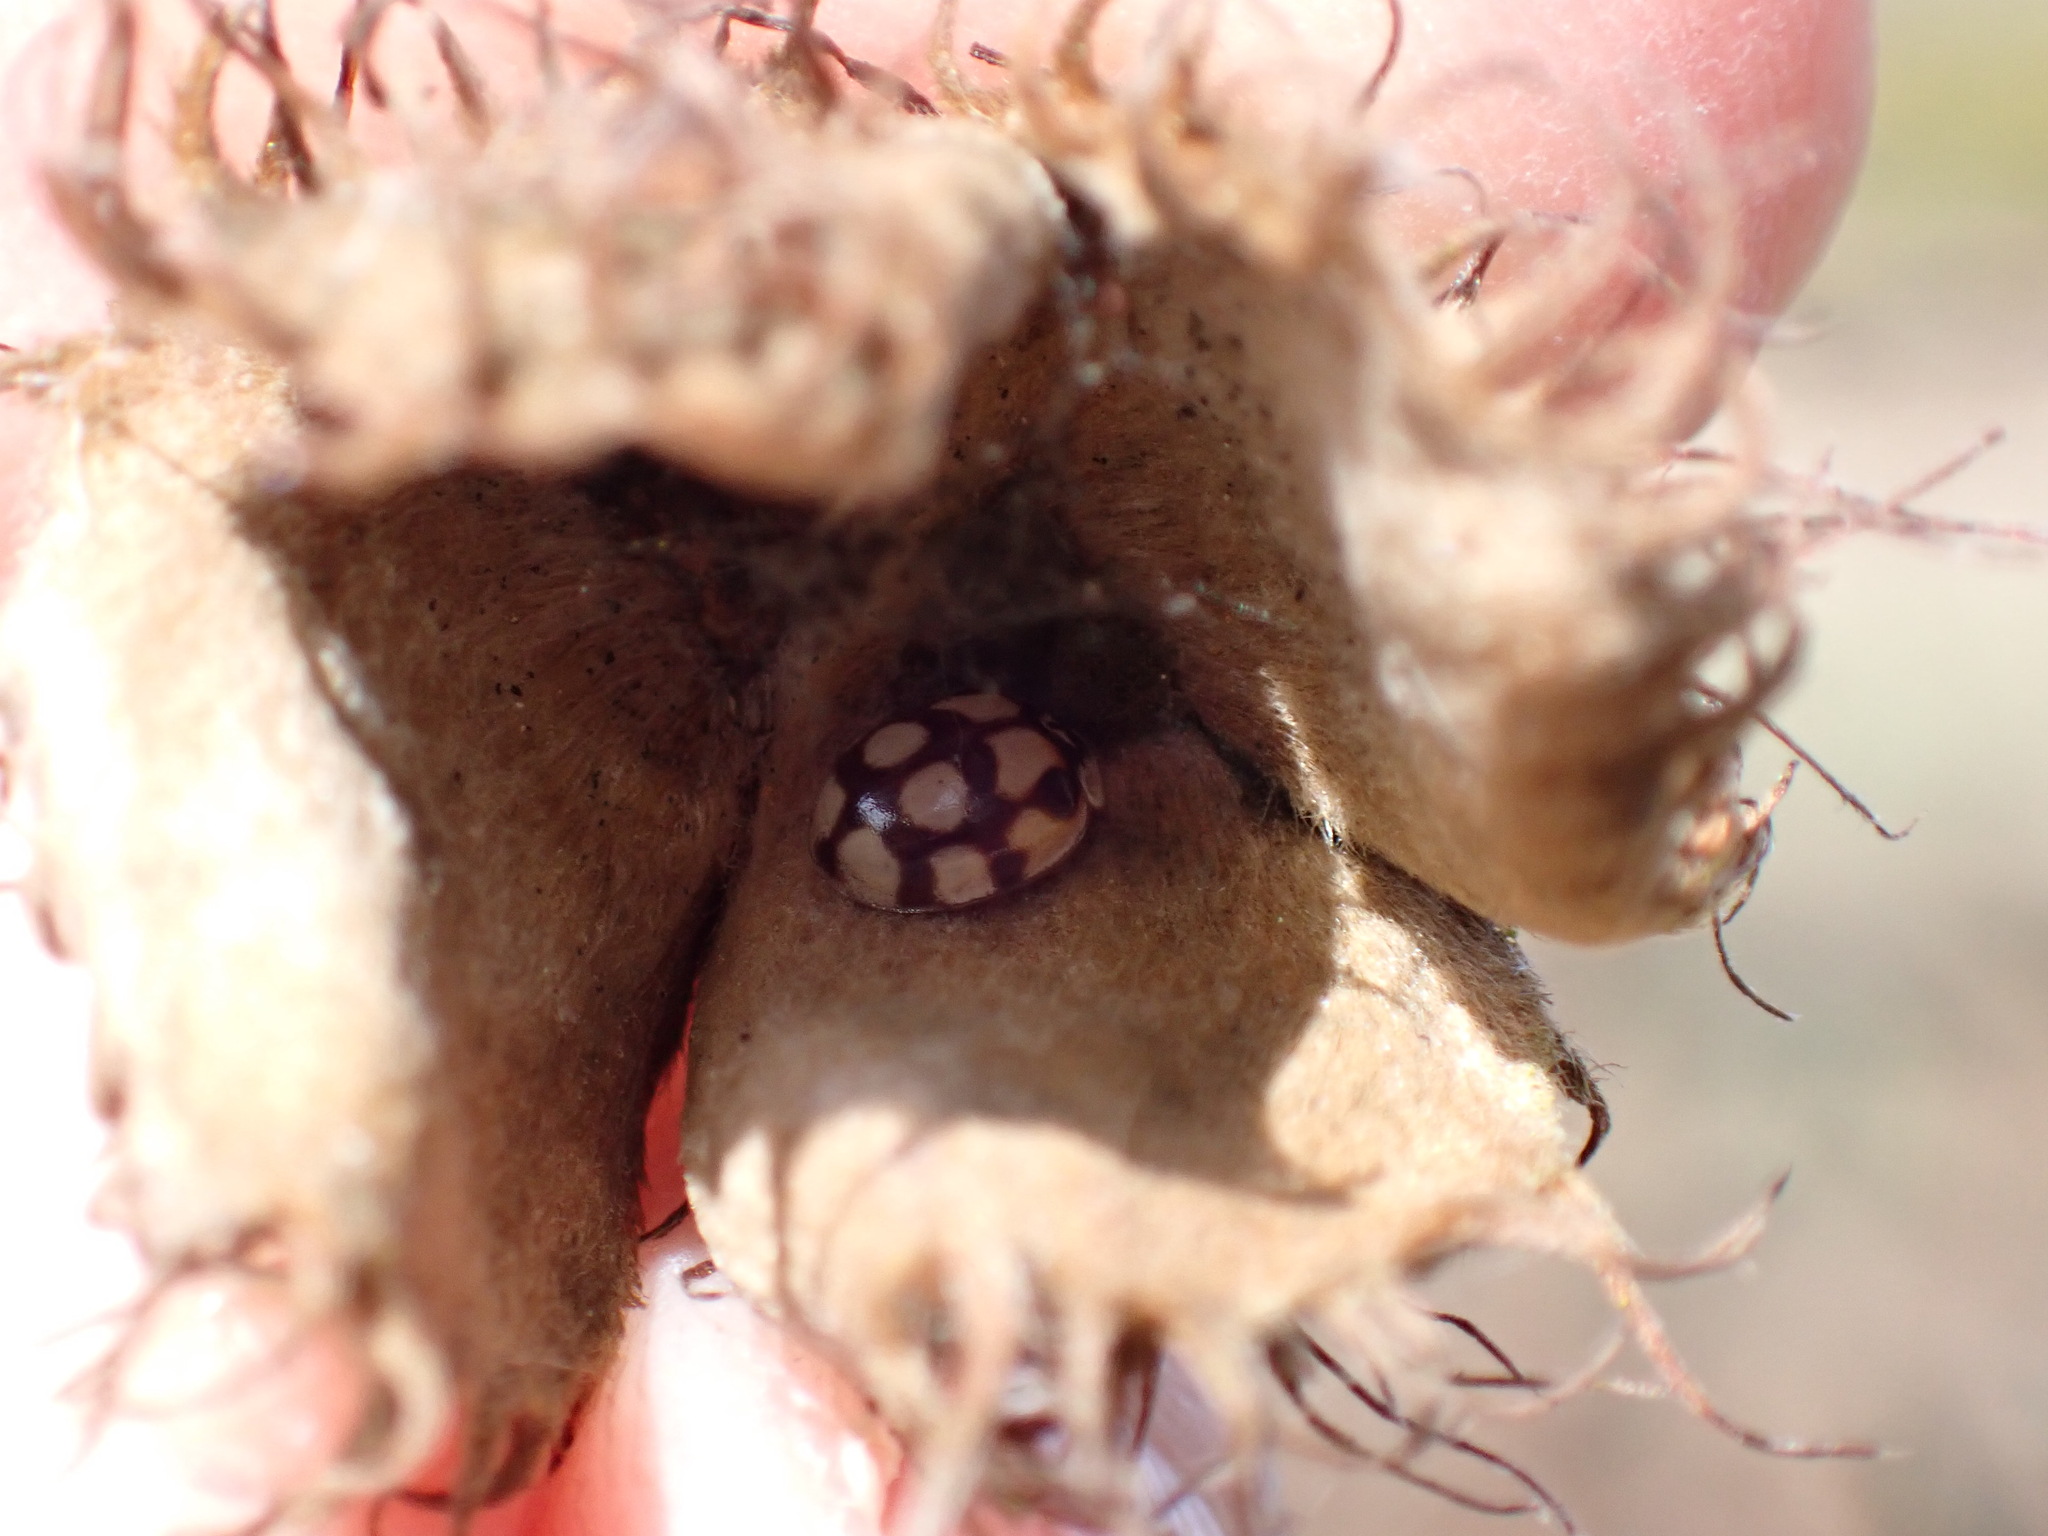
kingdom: Animalia
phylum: Arthropoda
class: Insecta
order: Coleoptera
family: Coccinellidae
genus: Adalia
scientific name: Adalia decempunctata
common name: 10-spot ladybird
